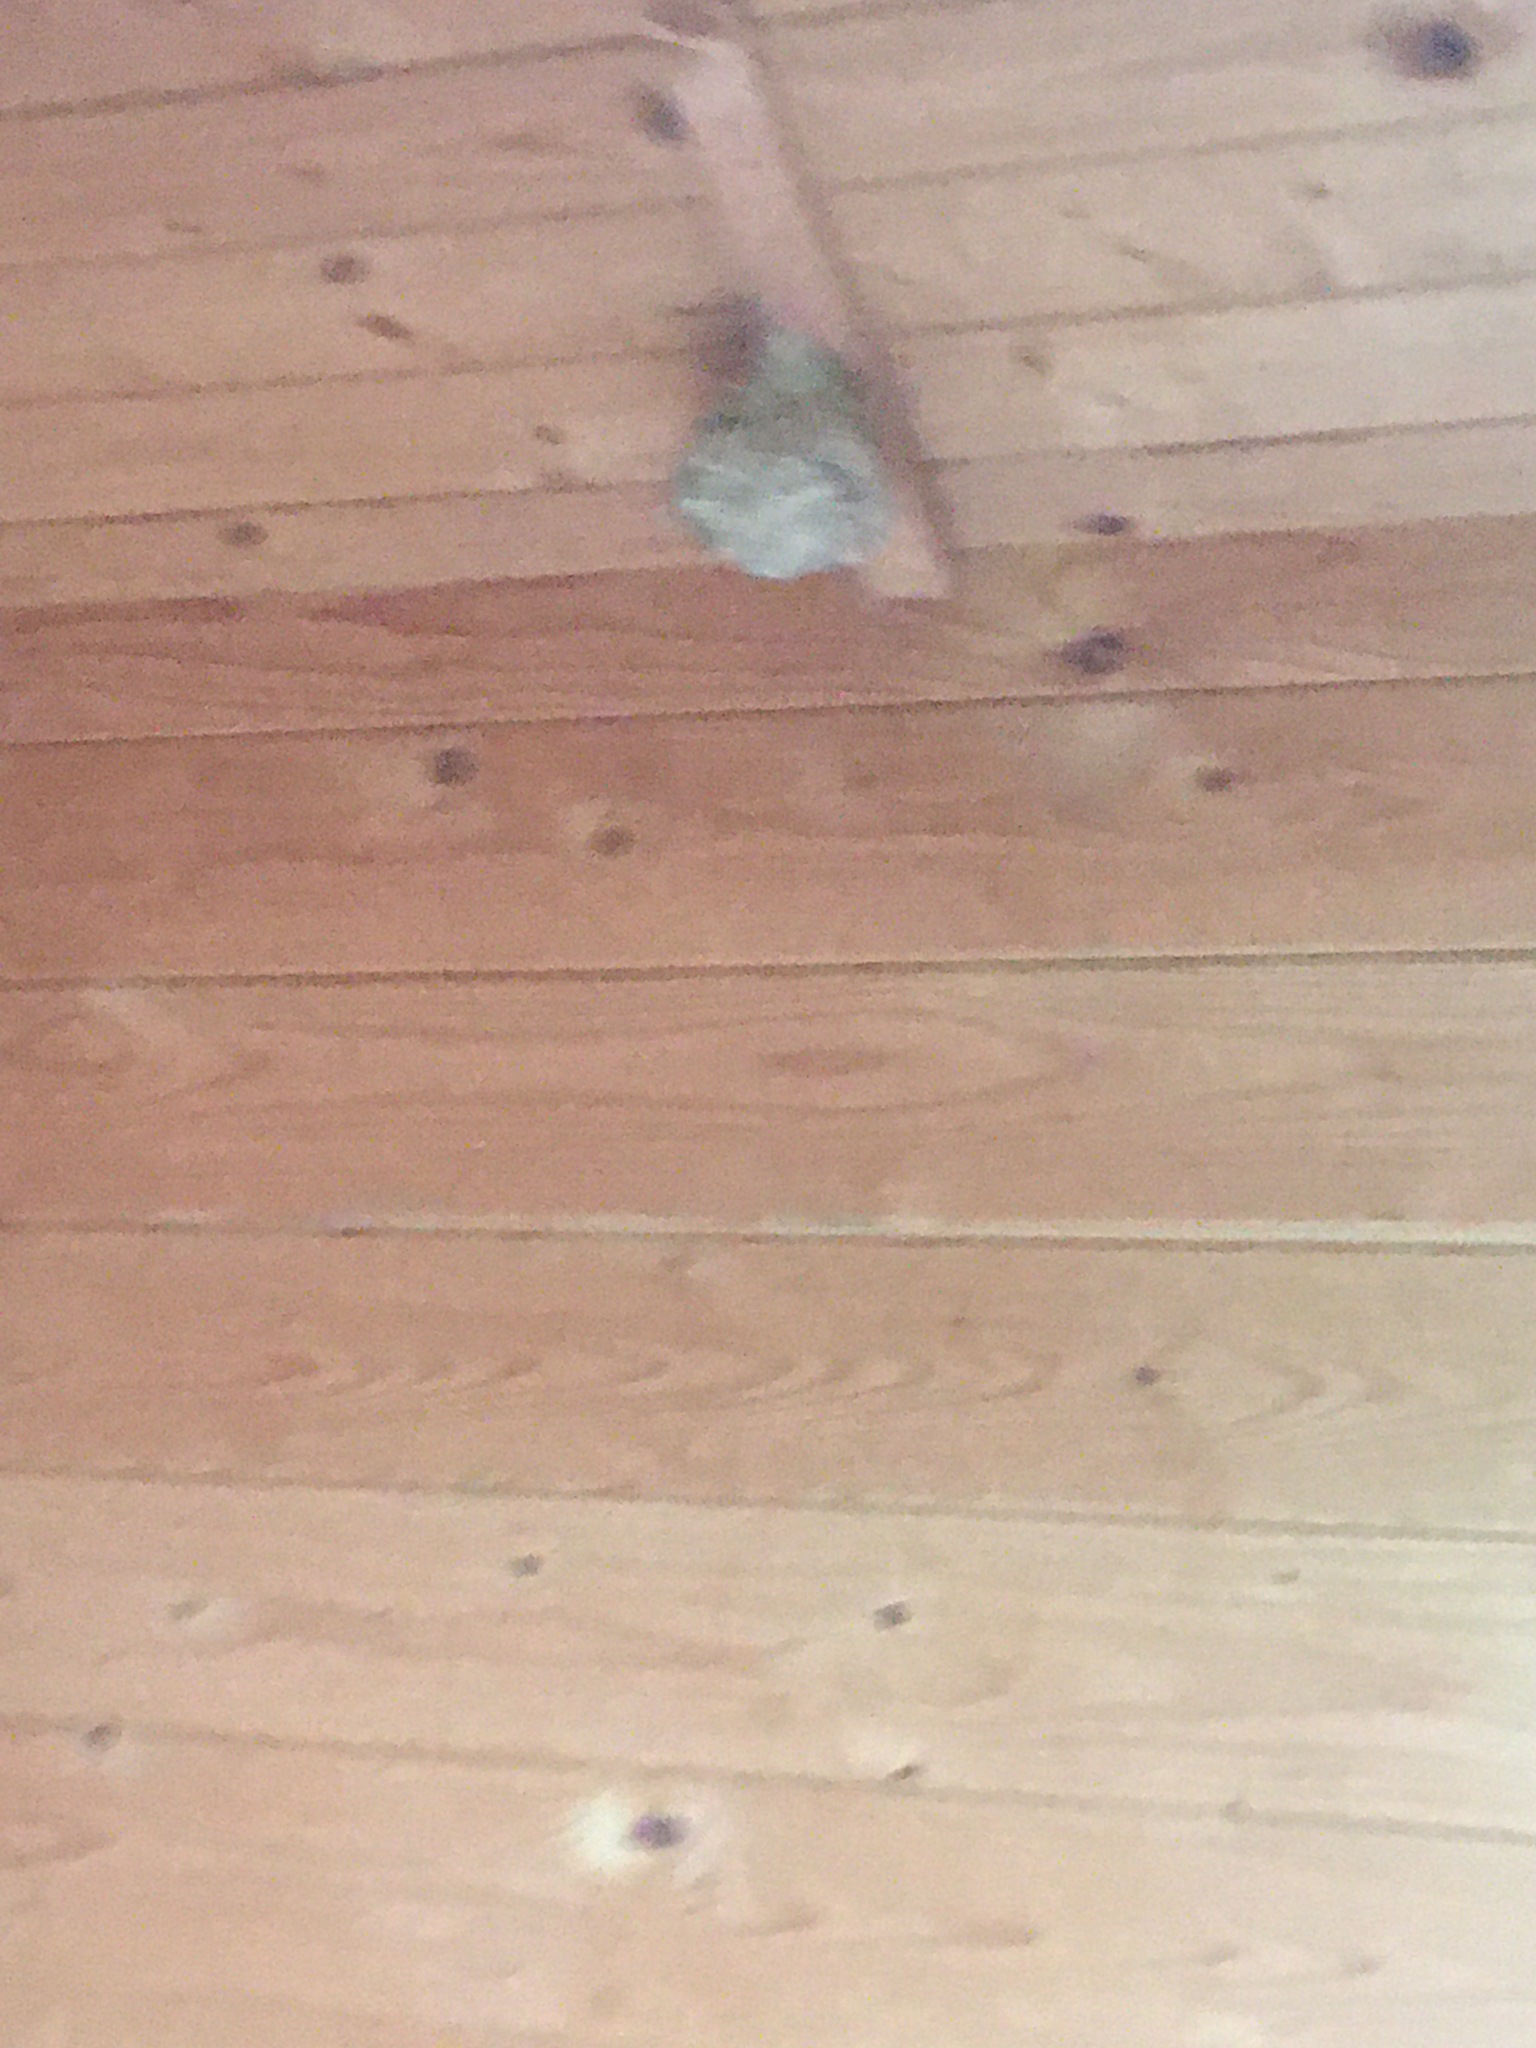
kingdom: Animalia
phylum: Arthropoda
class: Insecta
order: Hymenoptera
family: Vespidae
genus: Vespa
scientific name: Vespa velutina
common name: Asian hornet
